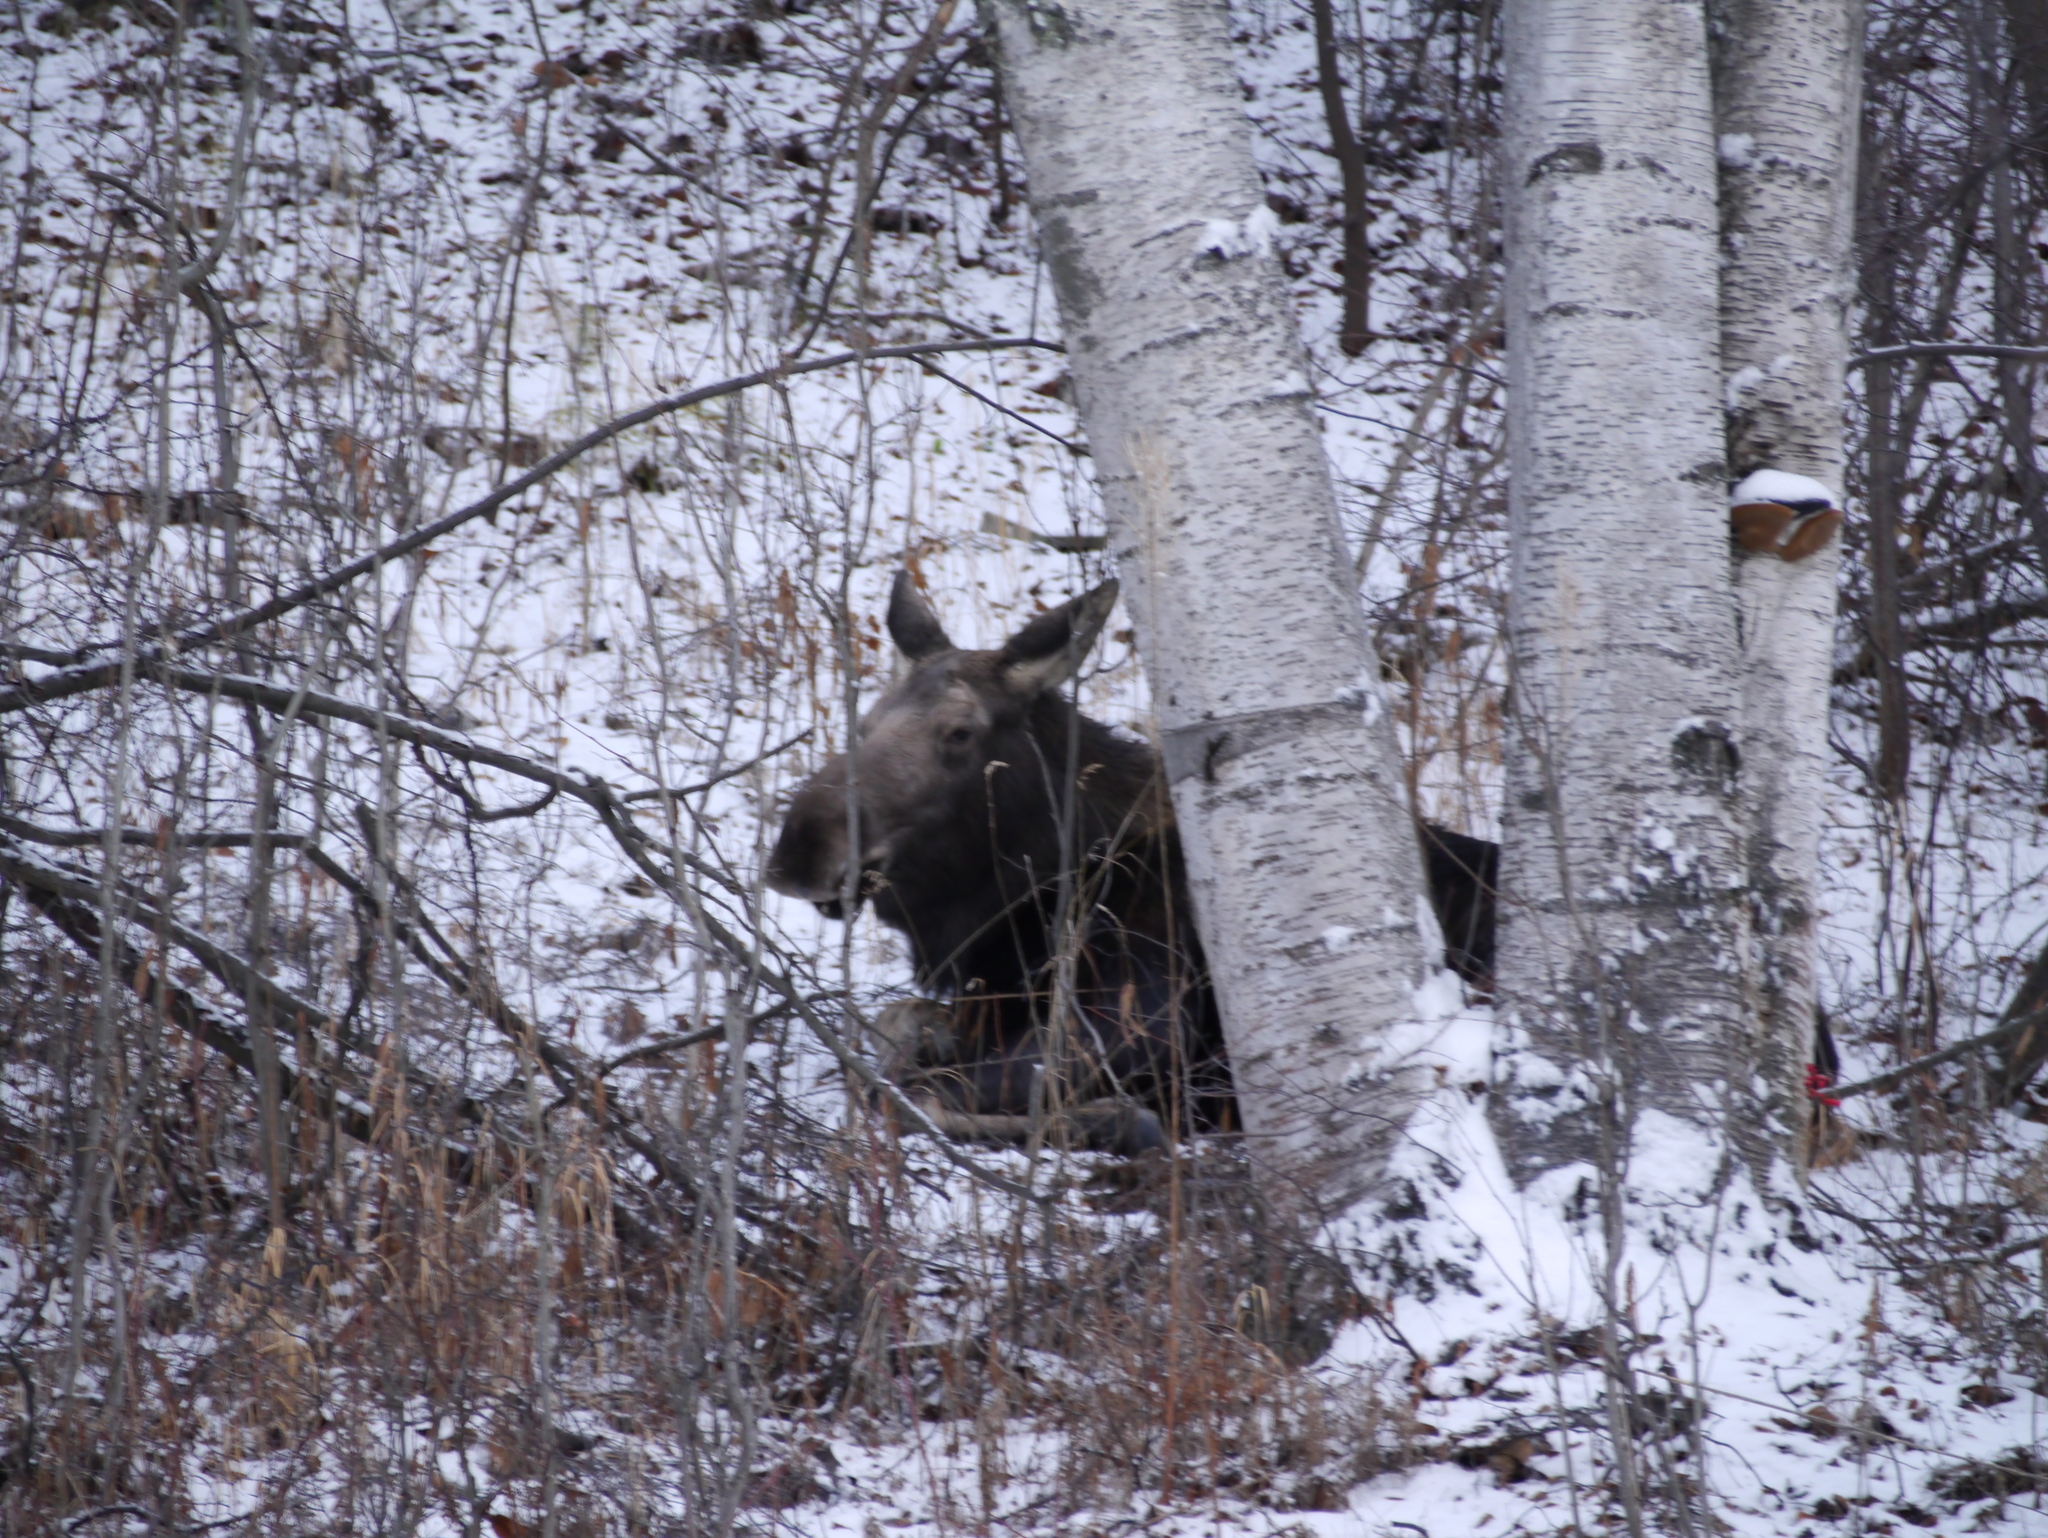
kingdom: Animalia
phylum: Chordata
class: Mammalia
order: Artiodactyla
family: Cervidae
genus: Alces
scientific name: Alces alces
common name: Moose
